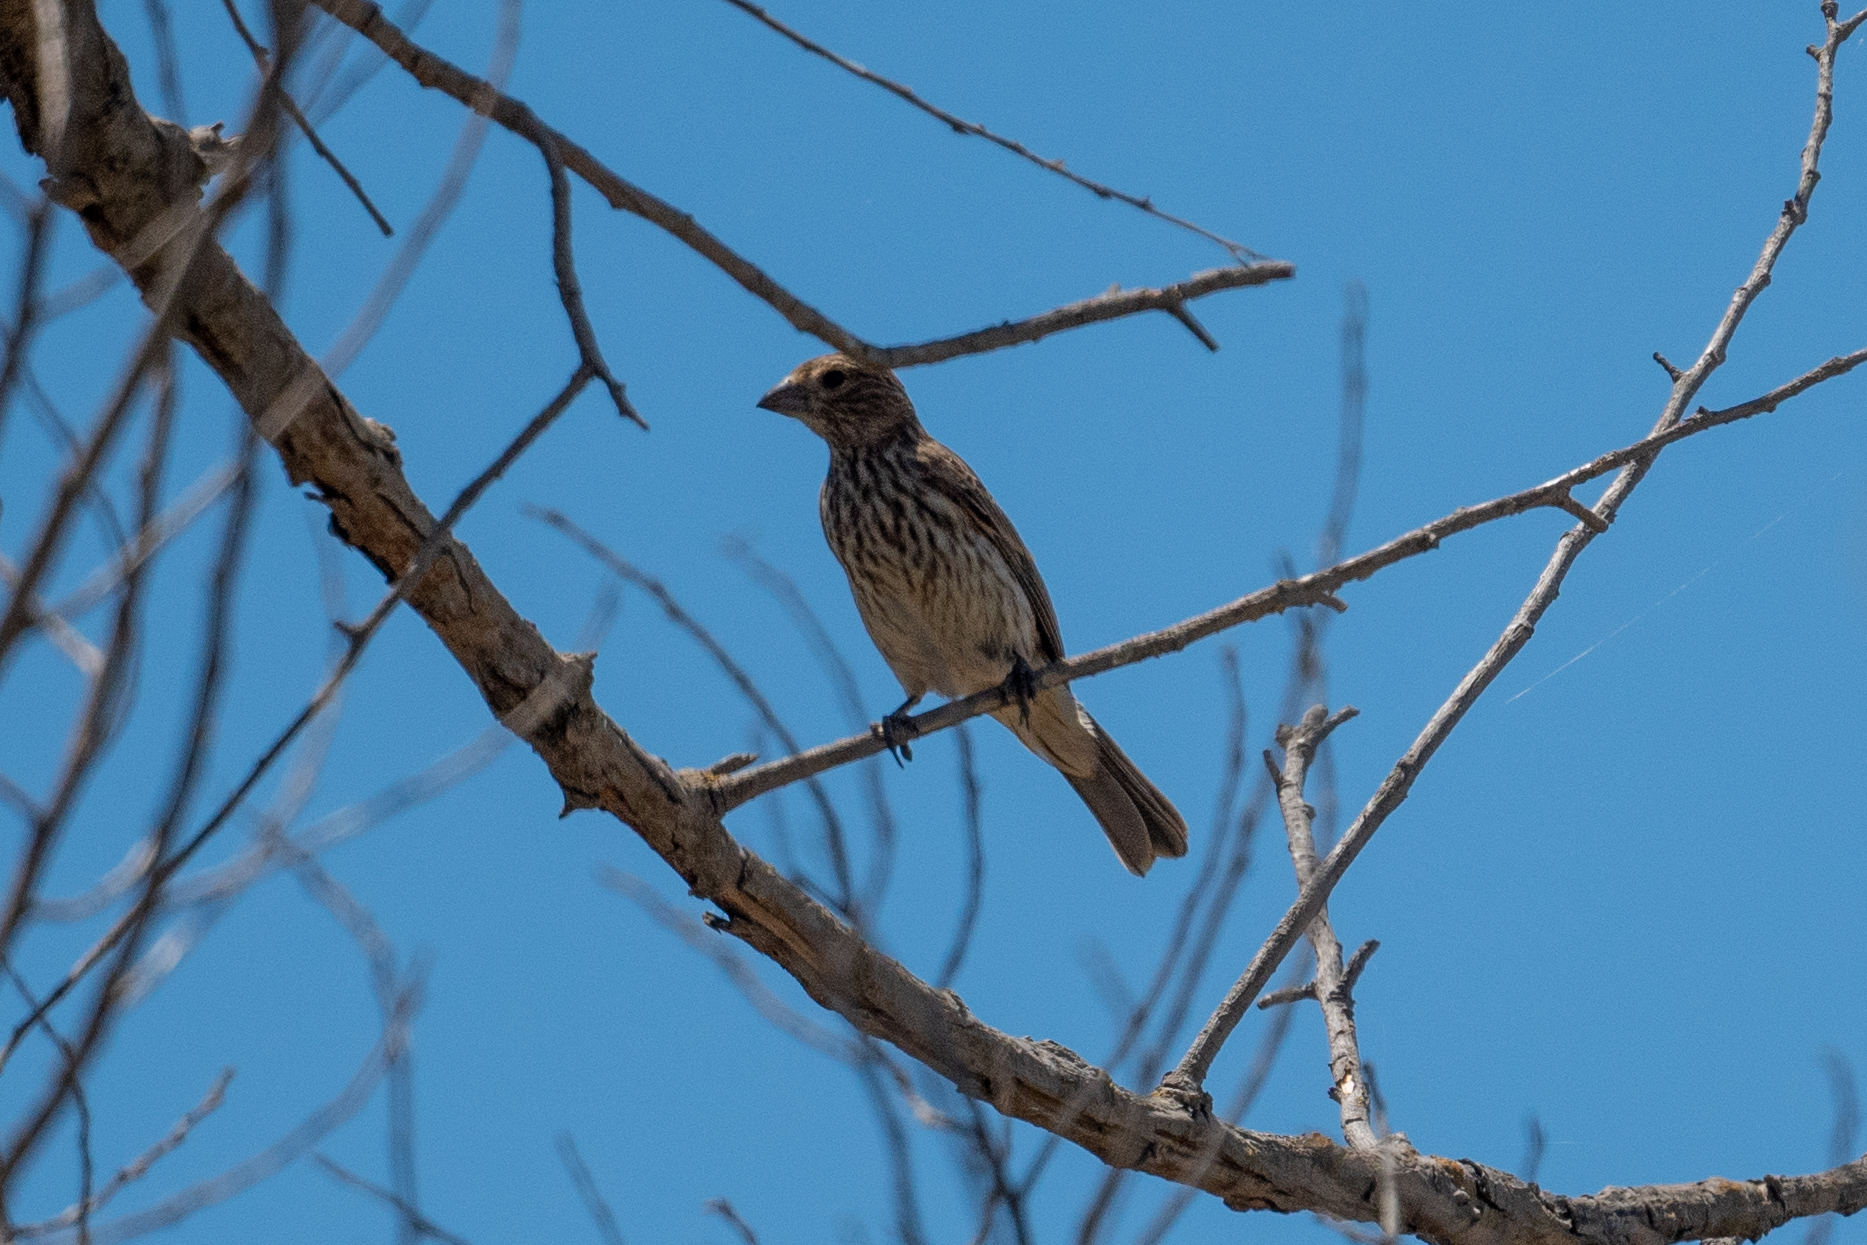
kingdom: Animalia
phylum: Chordata
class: Aves
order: Passeriformes
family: Fringillidae
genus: Haemorhous
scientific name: Haemorhous mexicanus
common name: House finch
